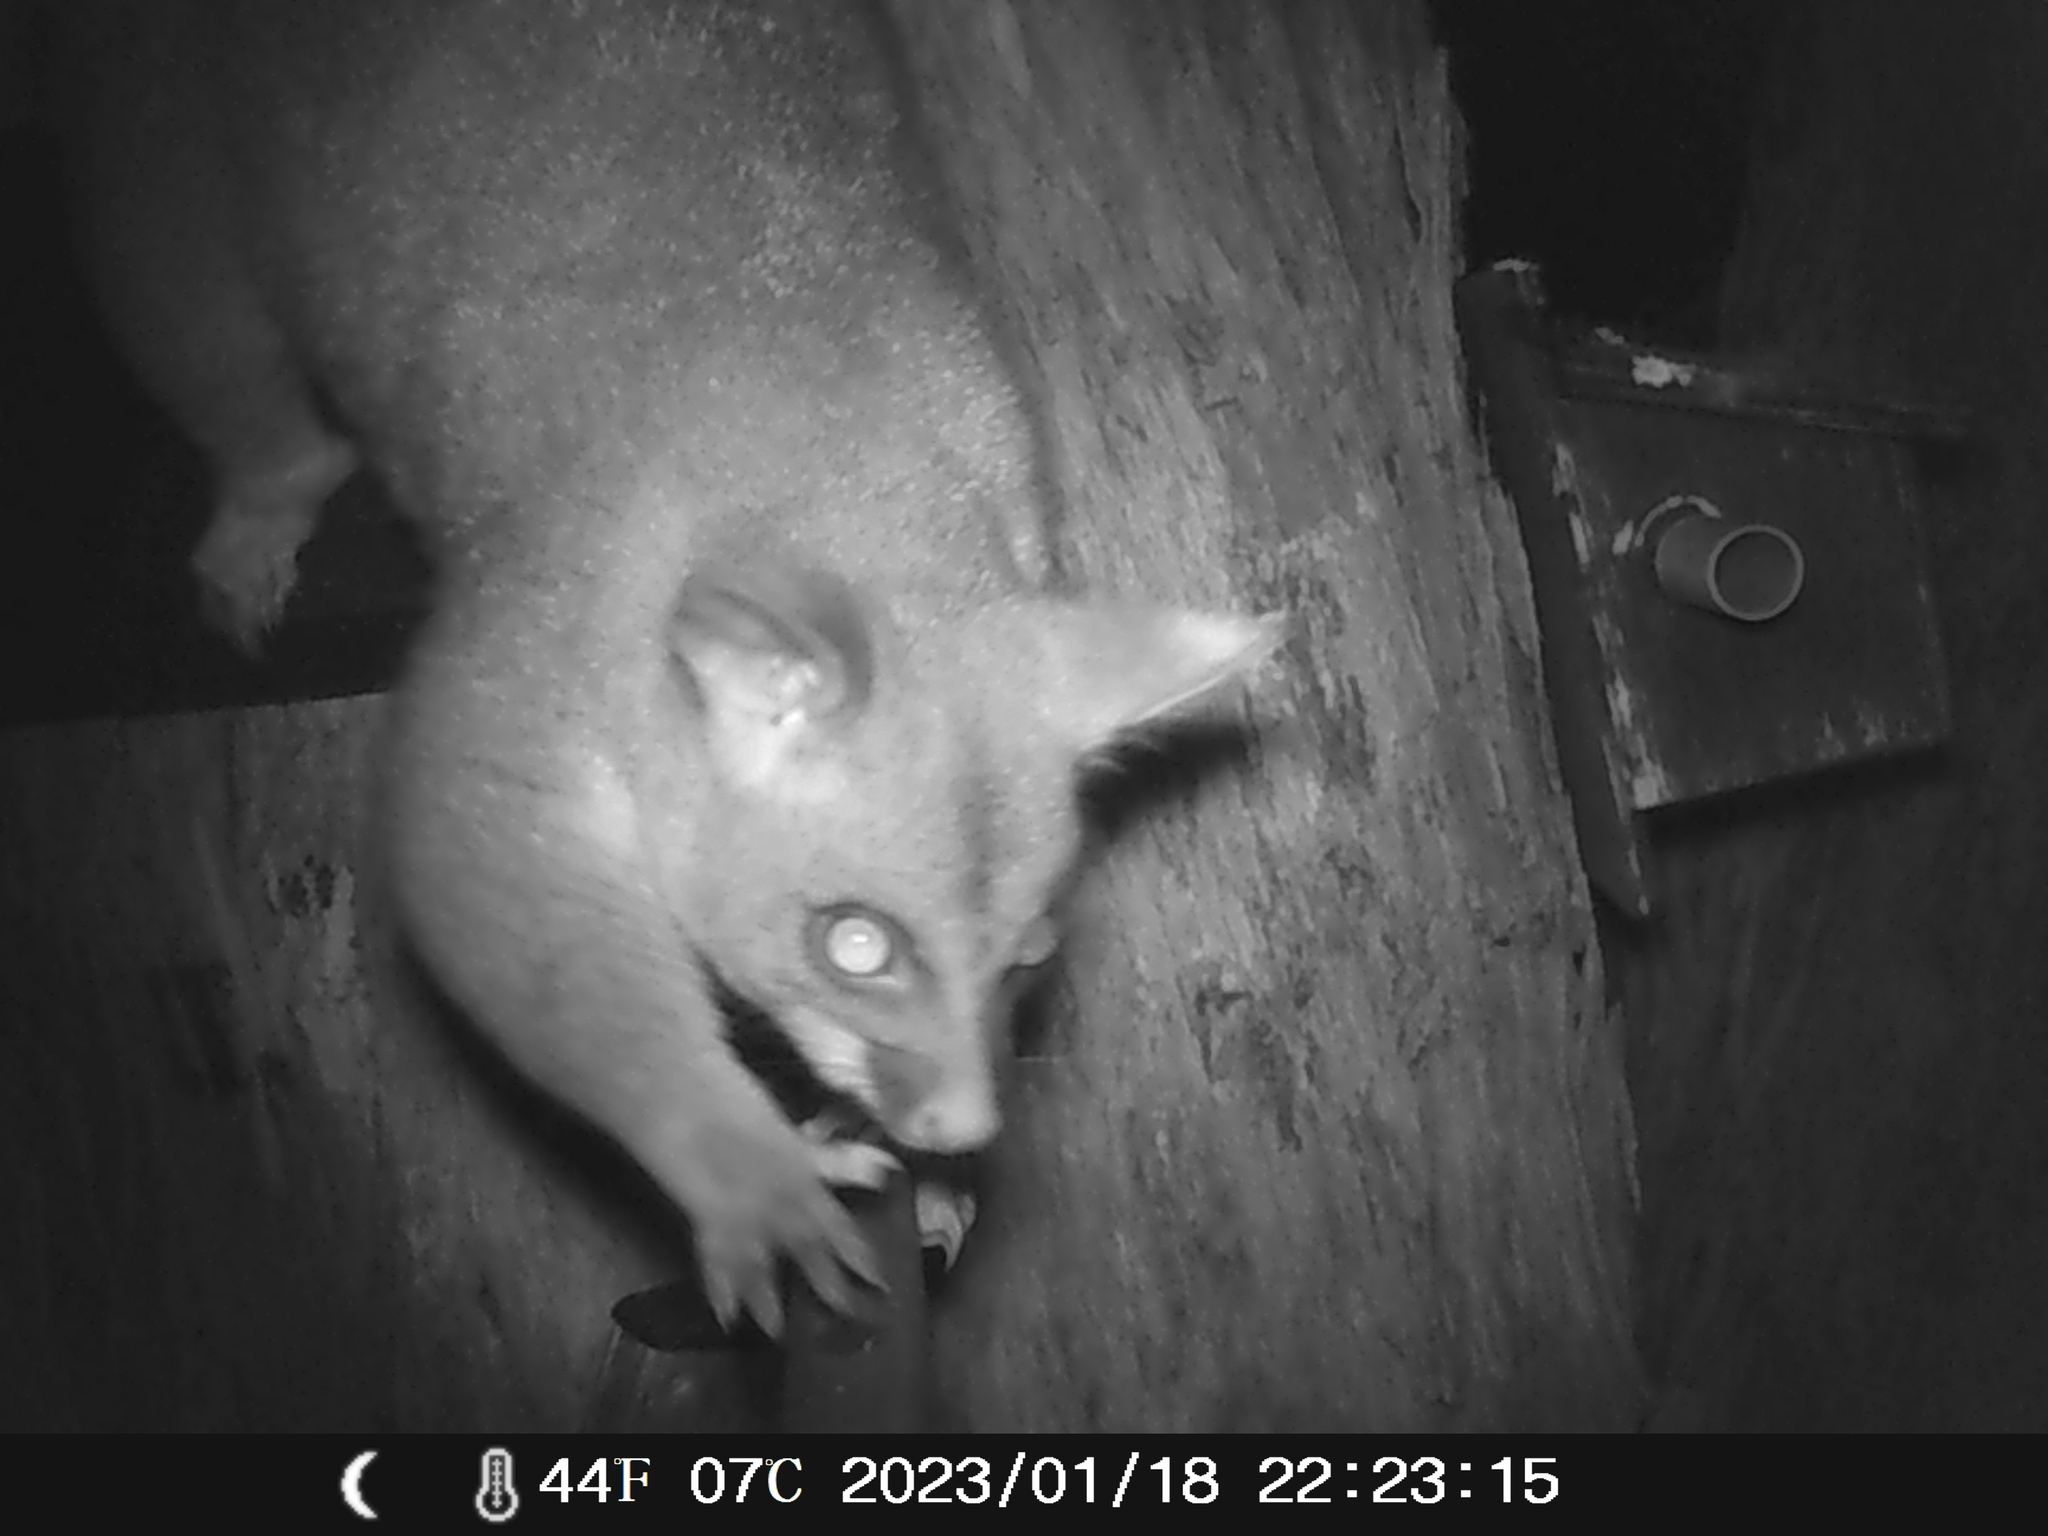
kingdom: Animalia
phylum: Chordata
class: Mammalia
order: Diprotodontia
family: Phalangeridae
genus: Trichosurus
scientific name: Trichosurus vulpecula
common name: Common brushtail
